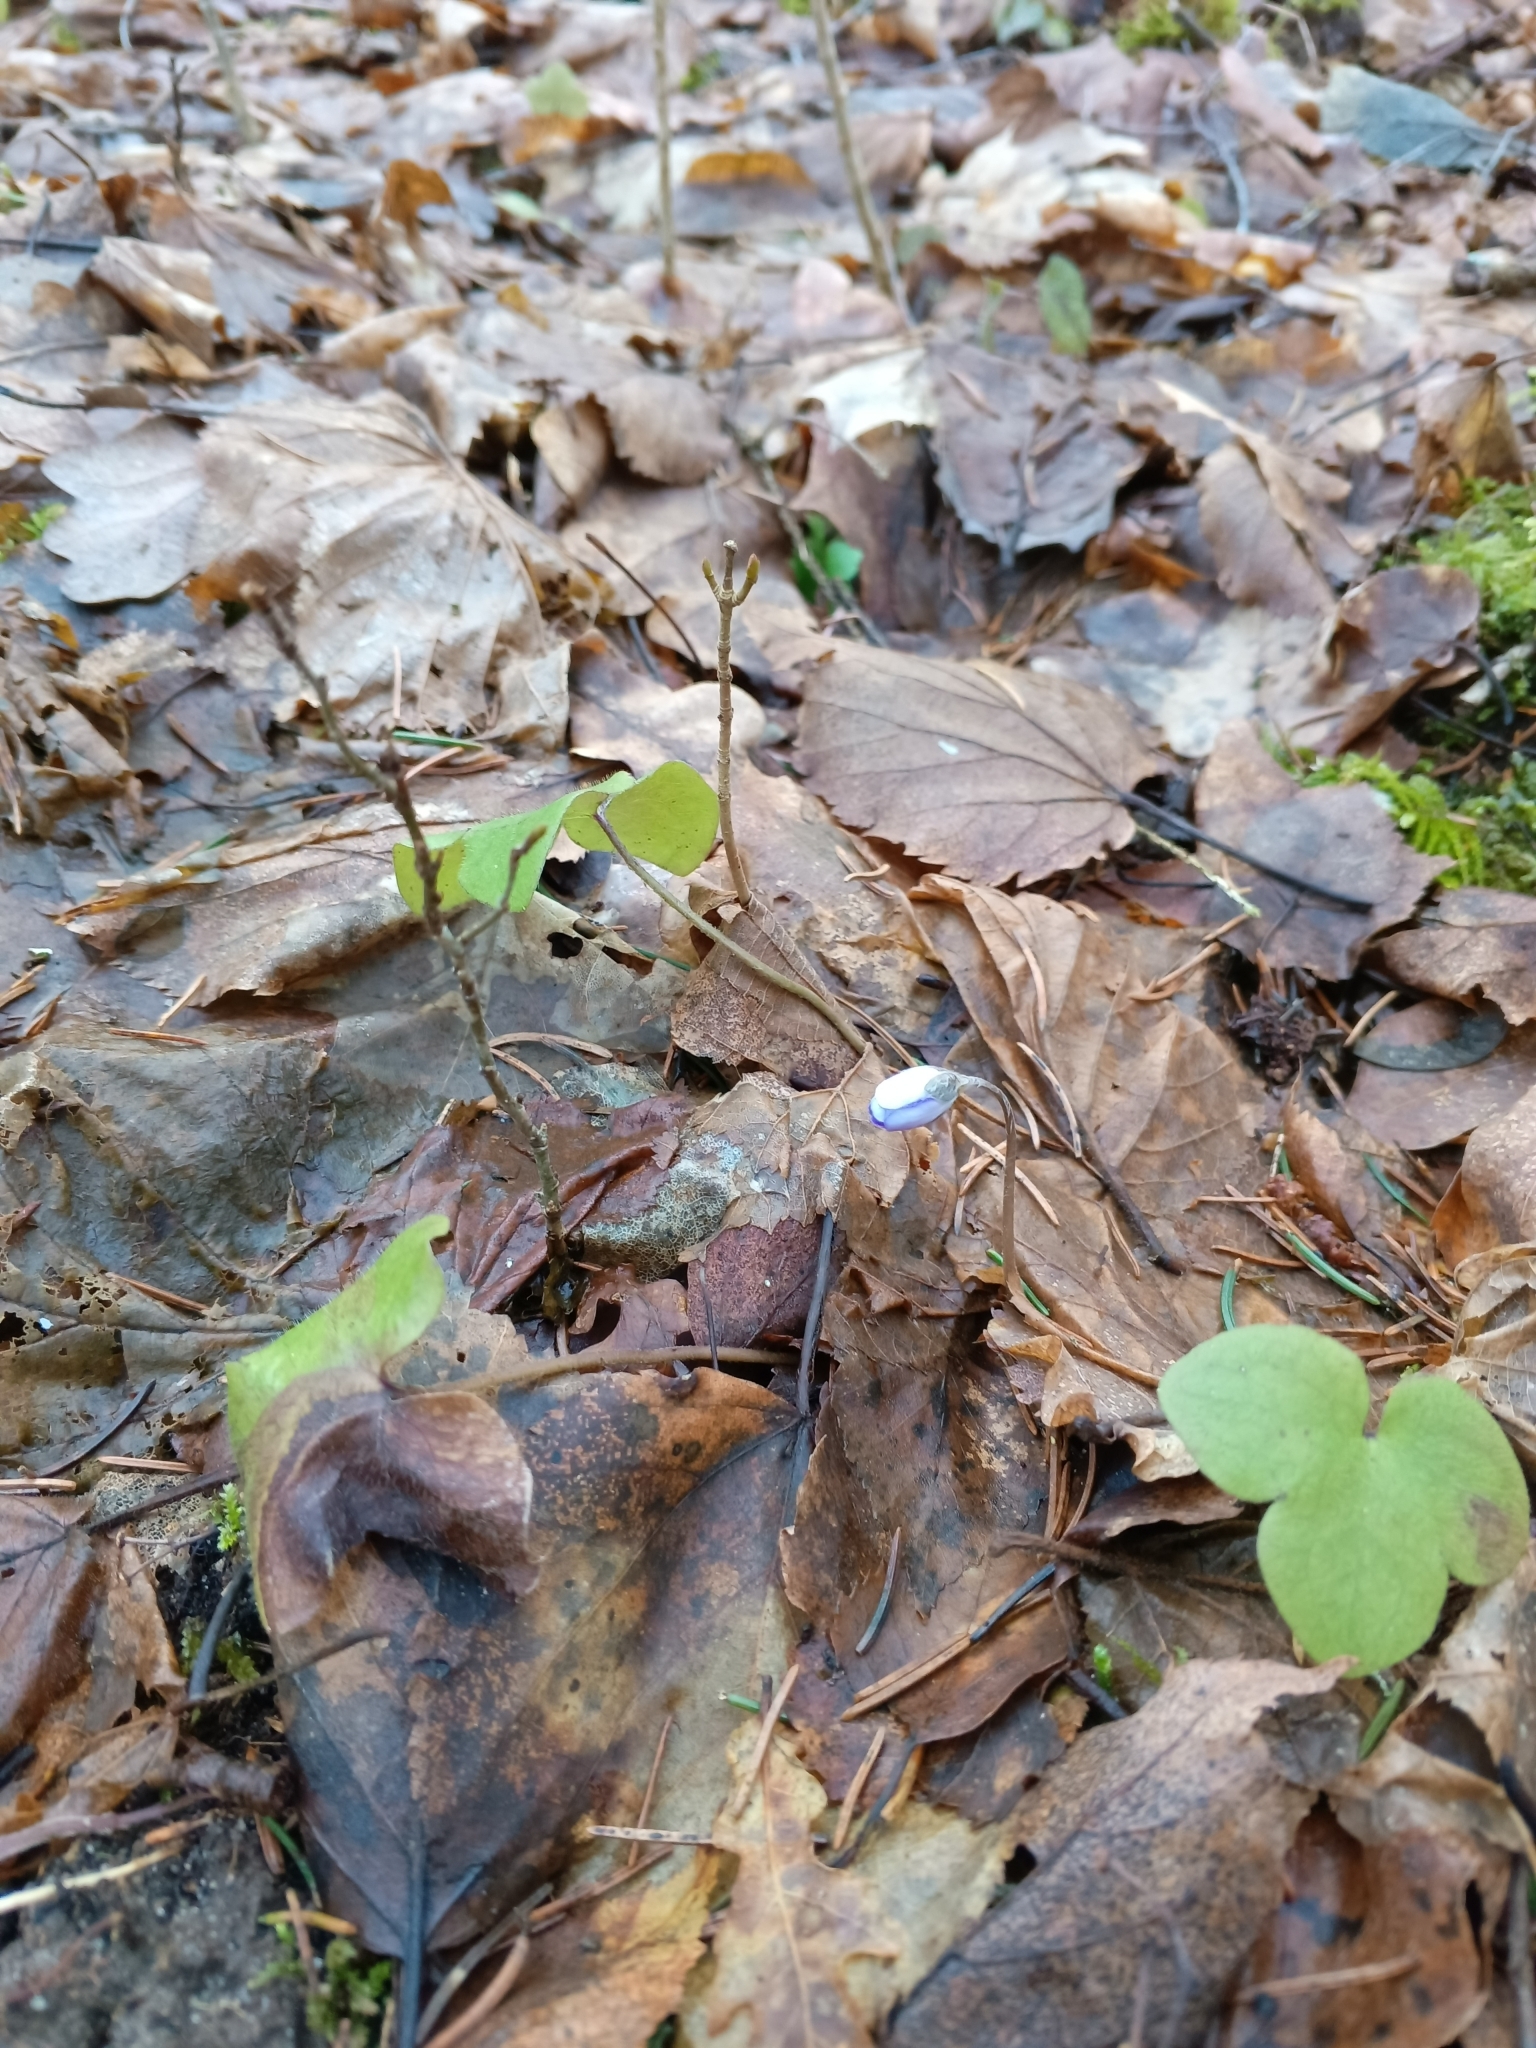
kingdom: Plantae
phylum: Tracheophyta
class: Magnoliopsida
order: Ranunculales
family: Ranunculaceae
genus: Hepatica
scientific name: Hepatica nobilis
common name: Liverleaf
